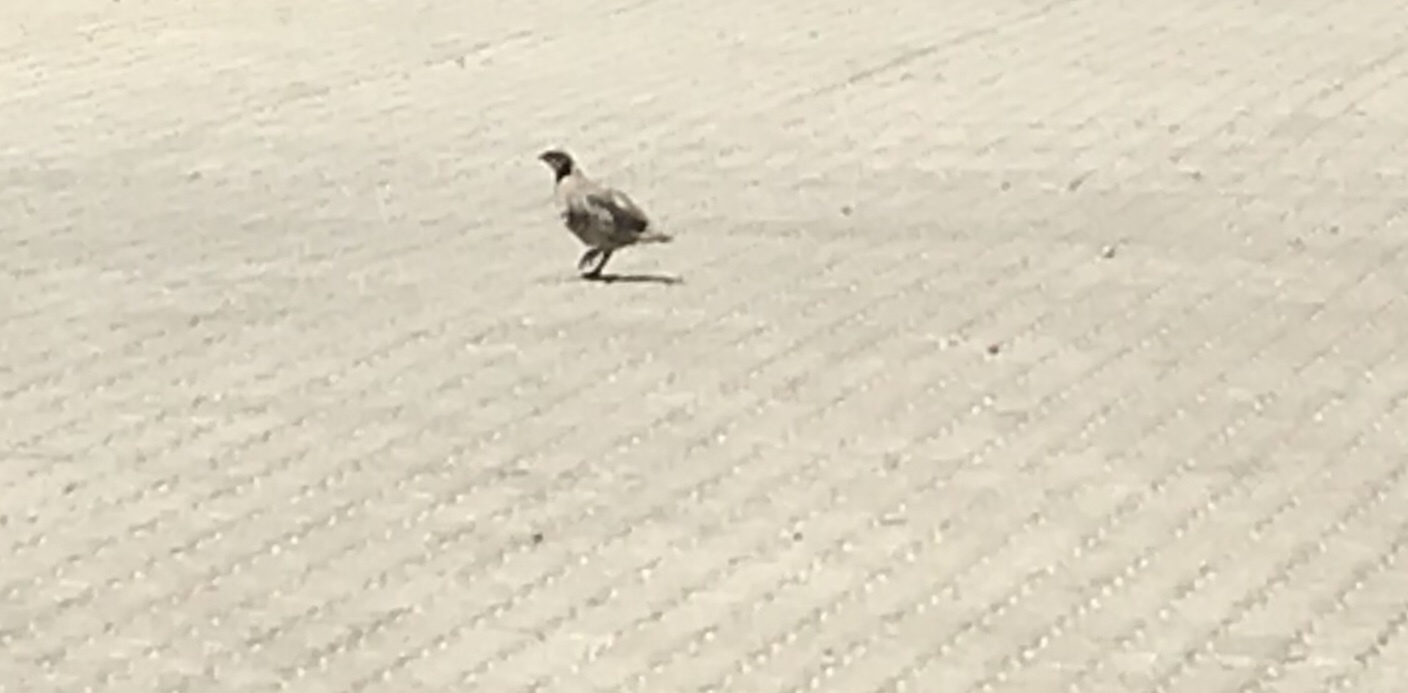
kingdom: Animalia
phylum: Chordata
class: Aves
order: Galliformes
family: Phasianidae
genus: Alectoris
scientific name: Alectoris chukar
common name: Chukar
